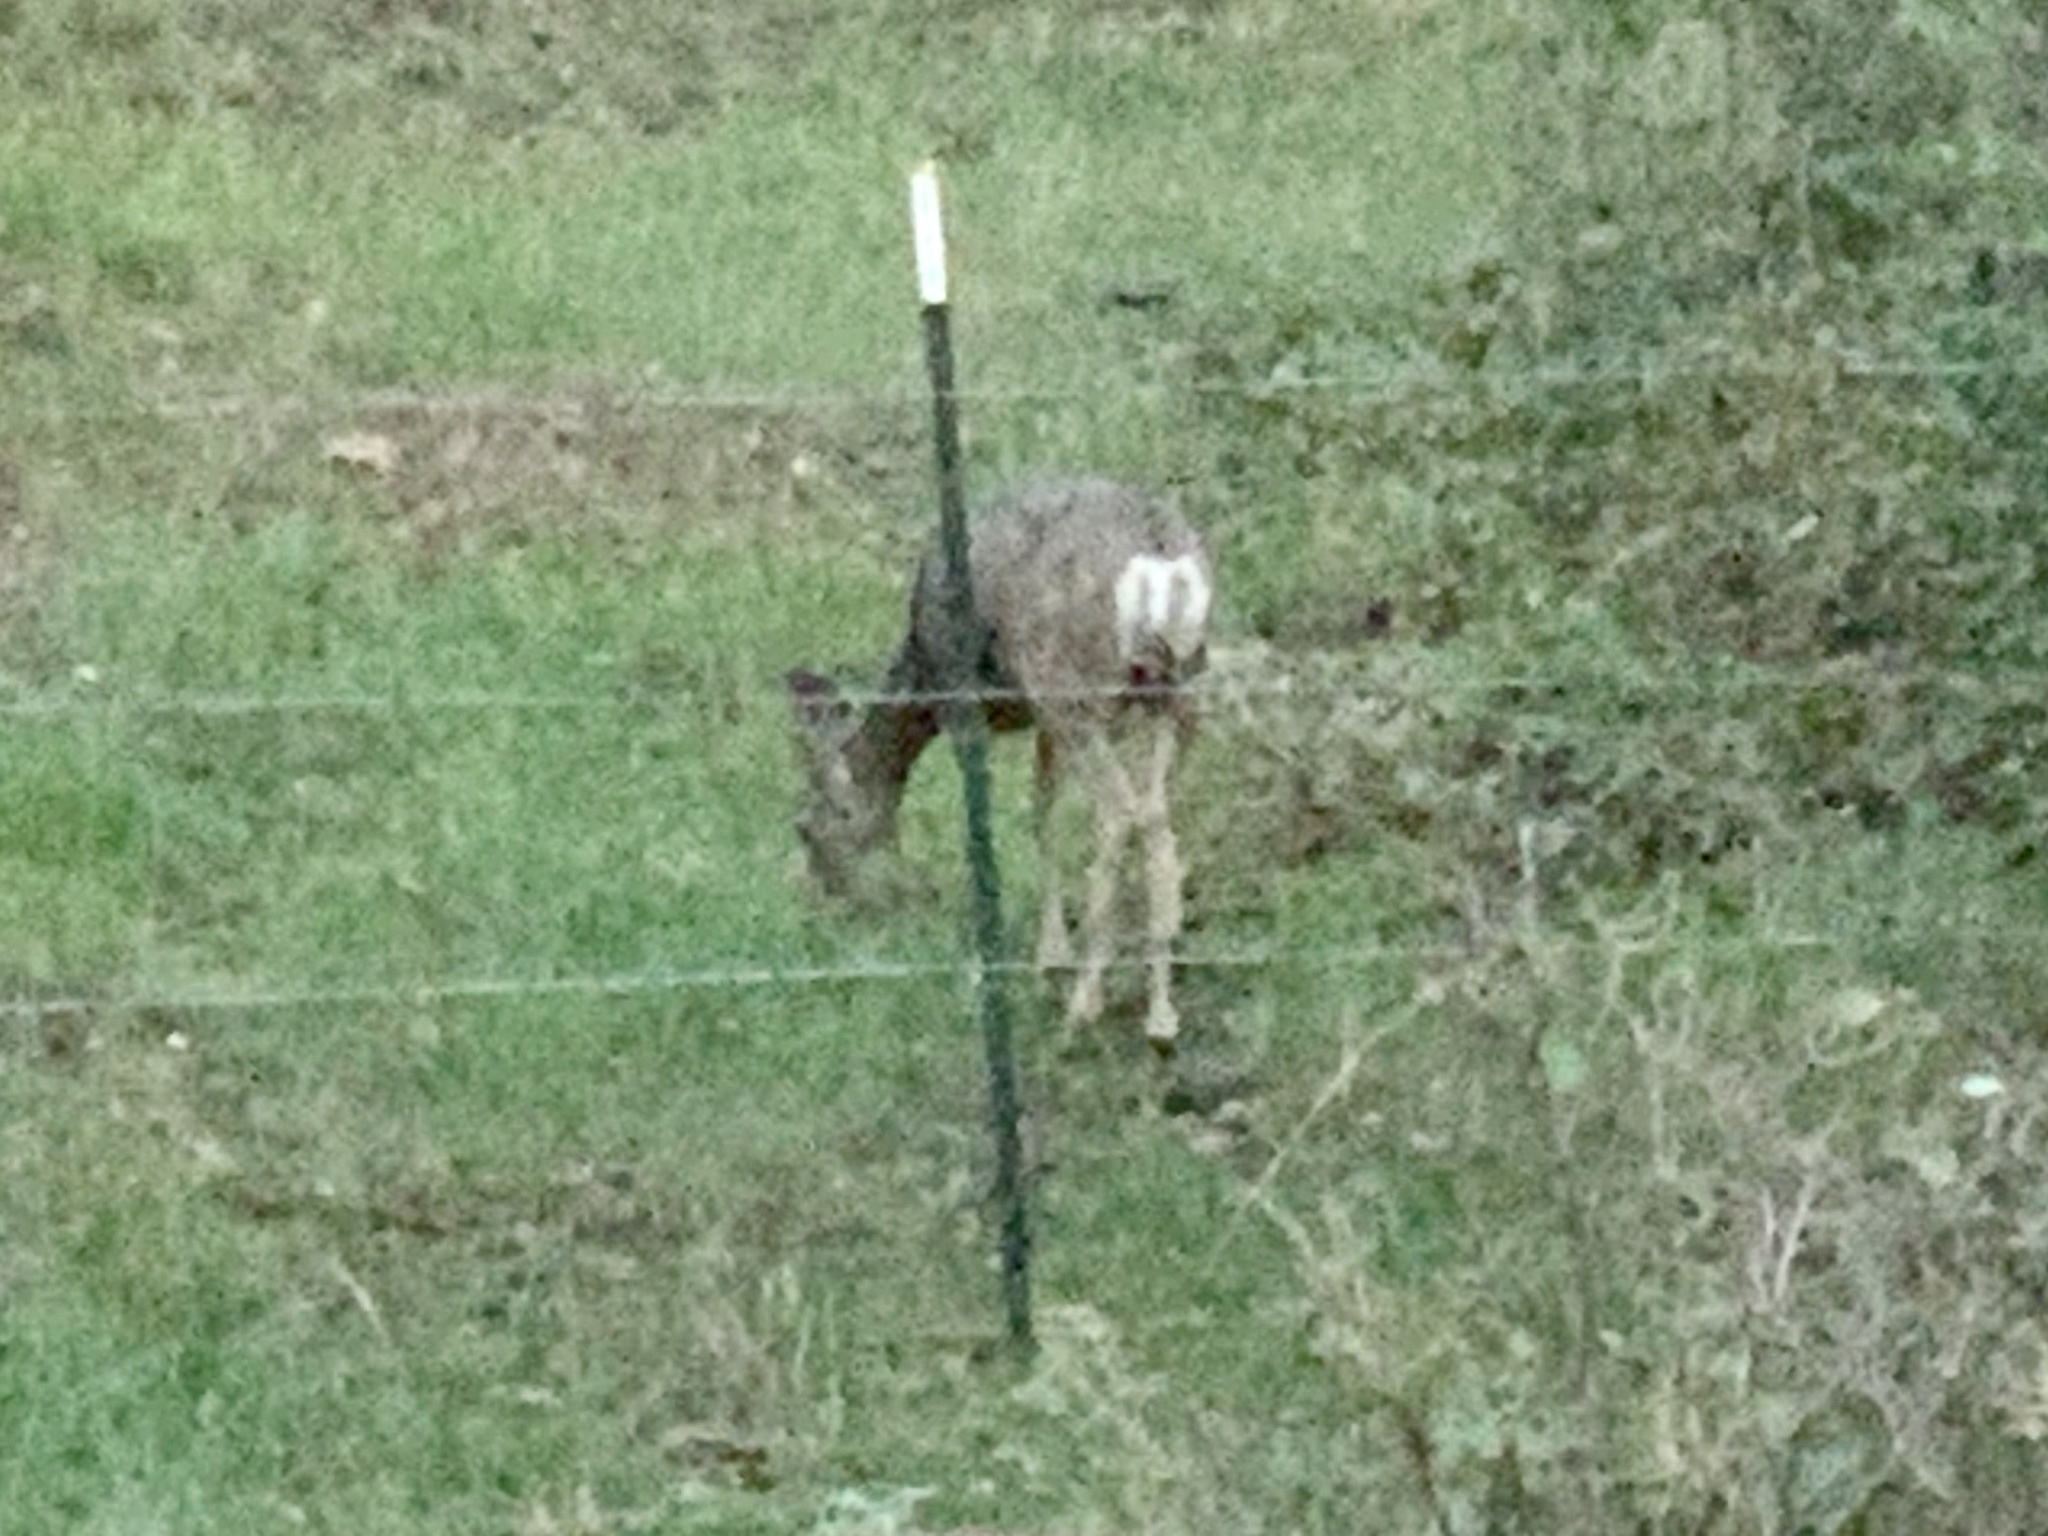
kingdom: Animalia
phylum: Chordata
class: Mammalia
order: Artiodactyla
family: Cervidae
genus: Odocoileus
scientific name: Odocoileus hemionus
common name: Mule deer
